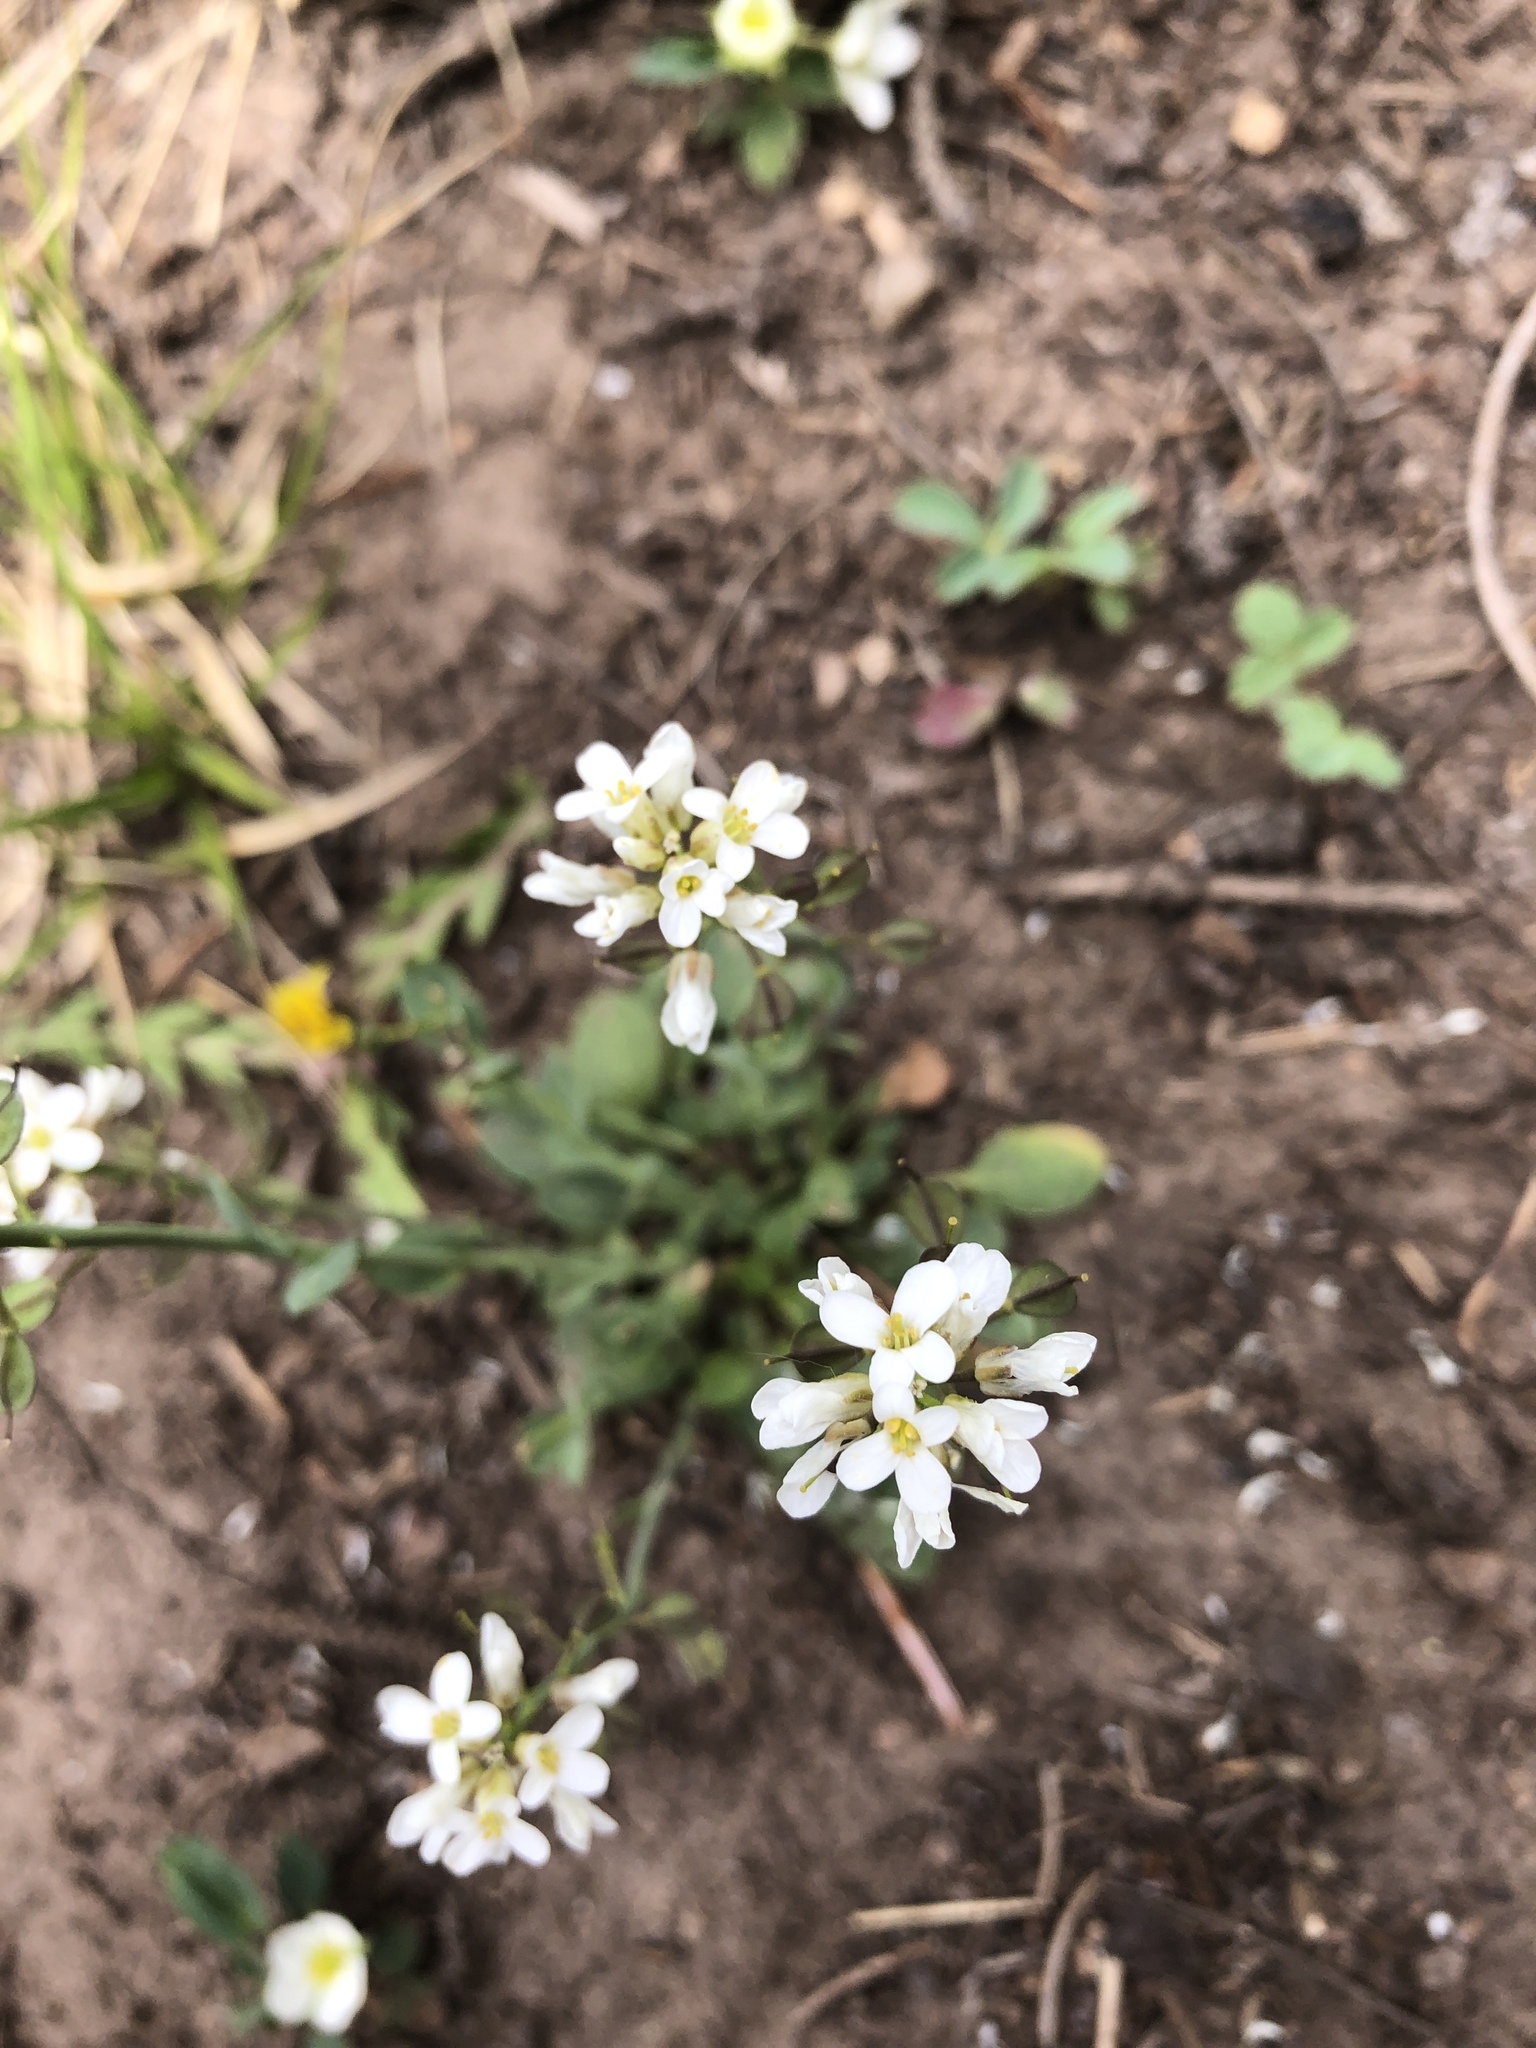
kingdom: Plantae
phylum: Tracheophyta
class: Magnoliopsida
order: Brassicales
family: Brassicaceae
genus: Noccaea
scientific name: Noccaea fendleri
